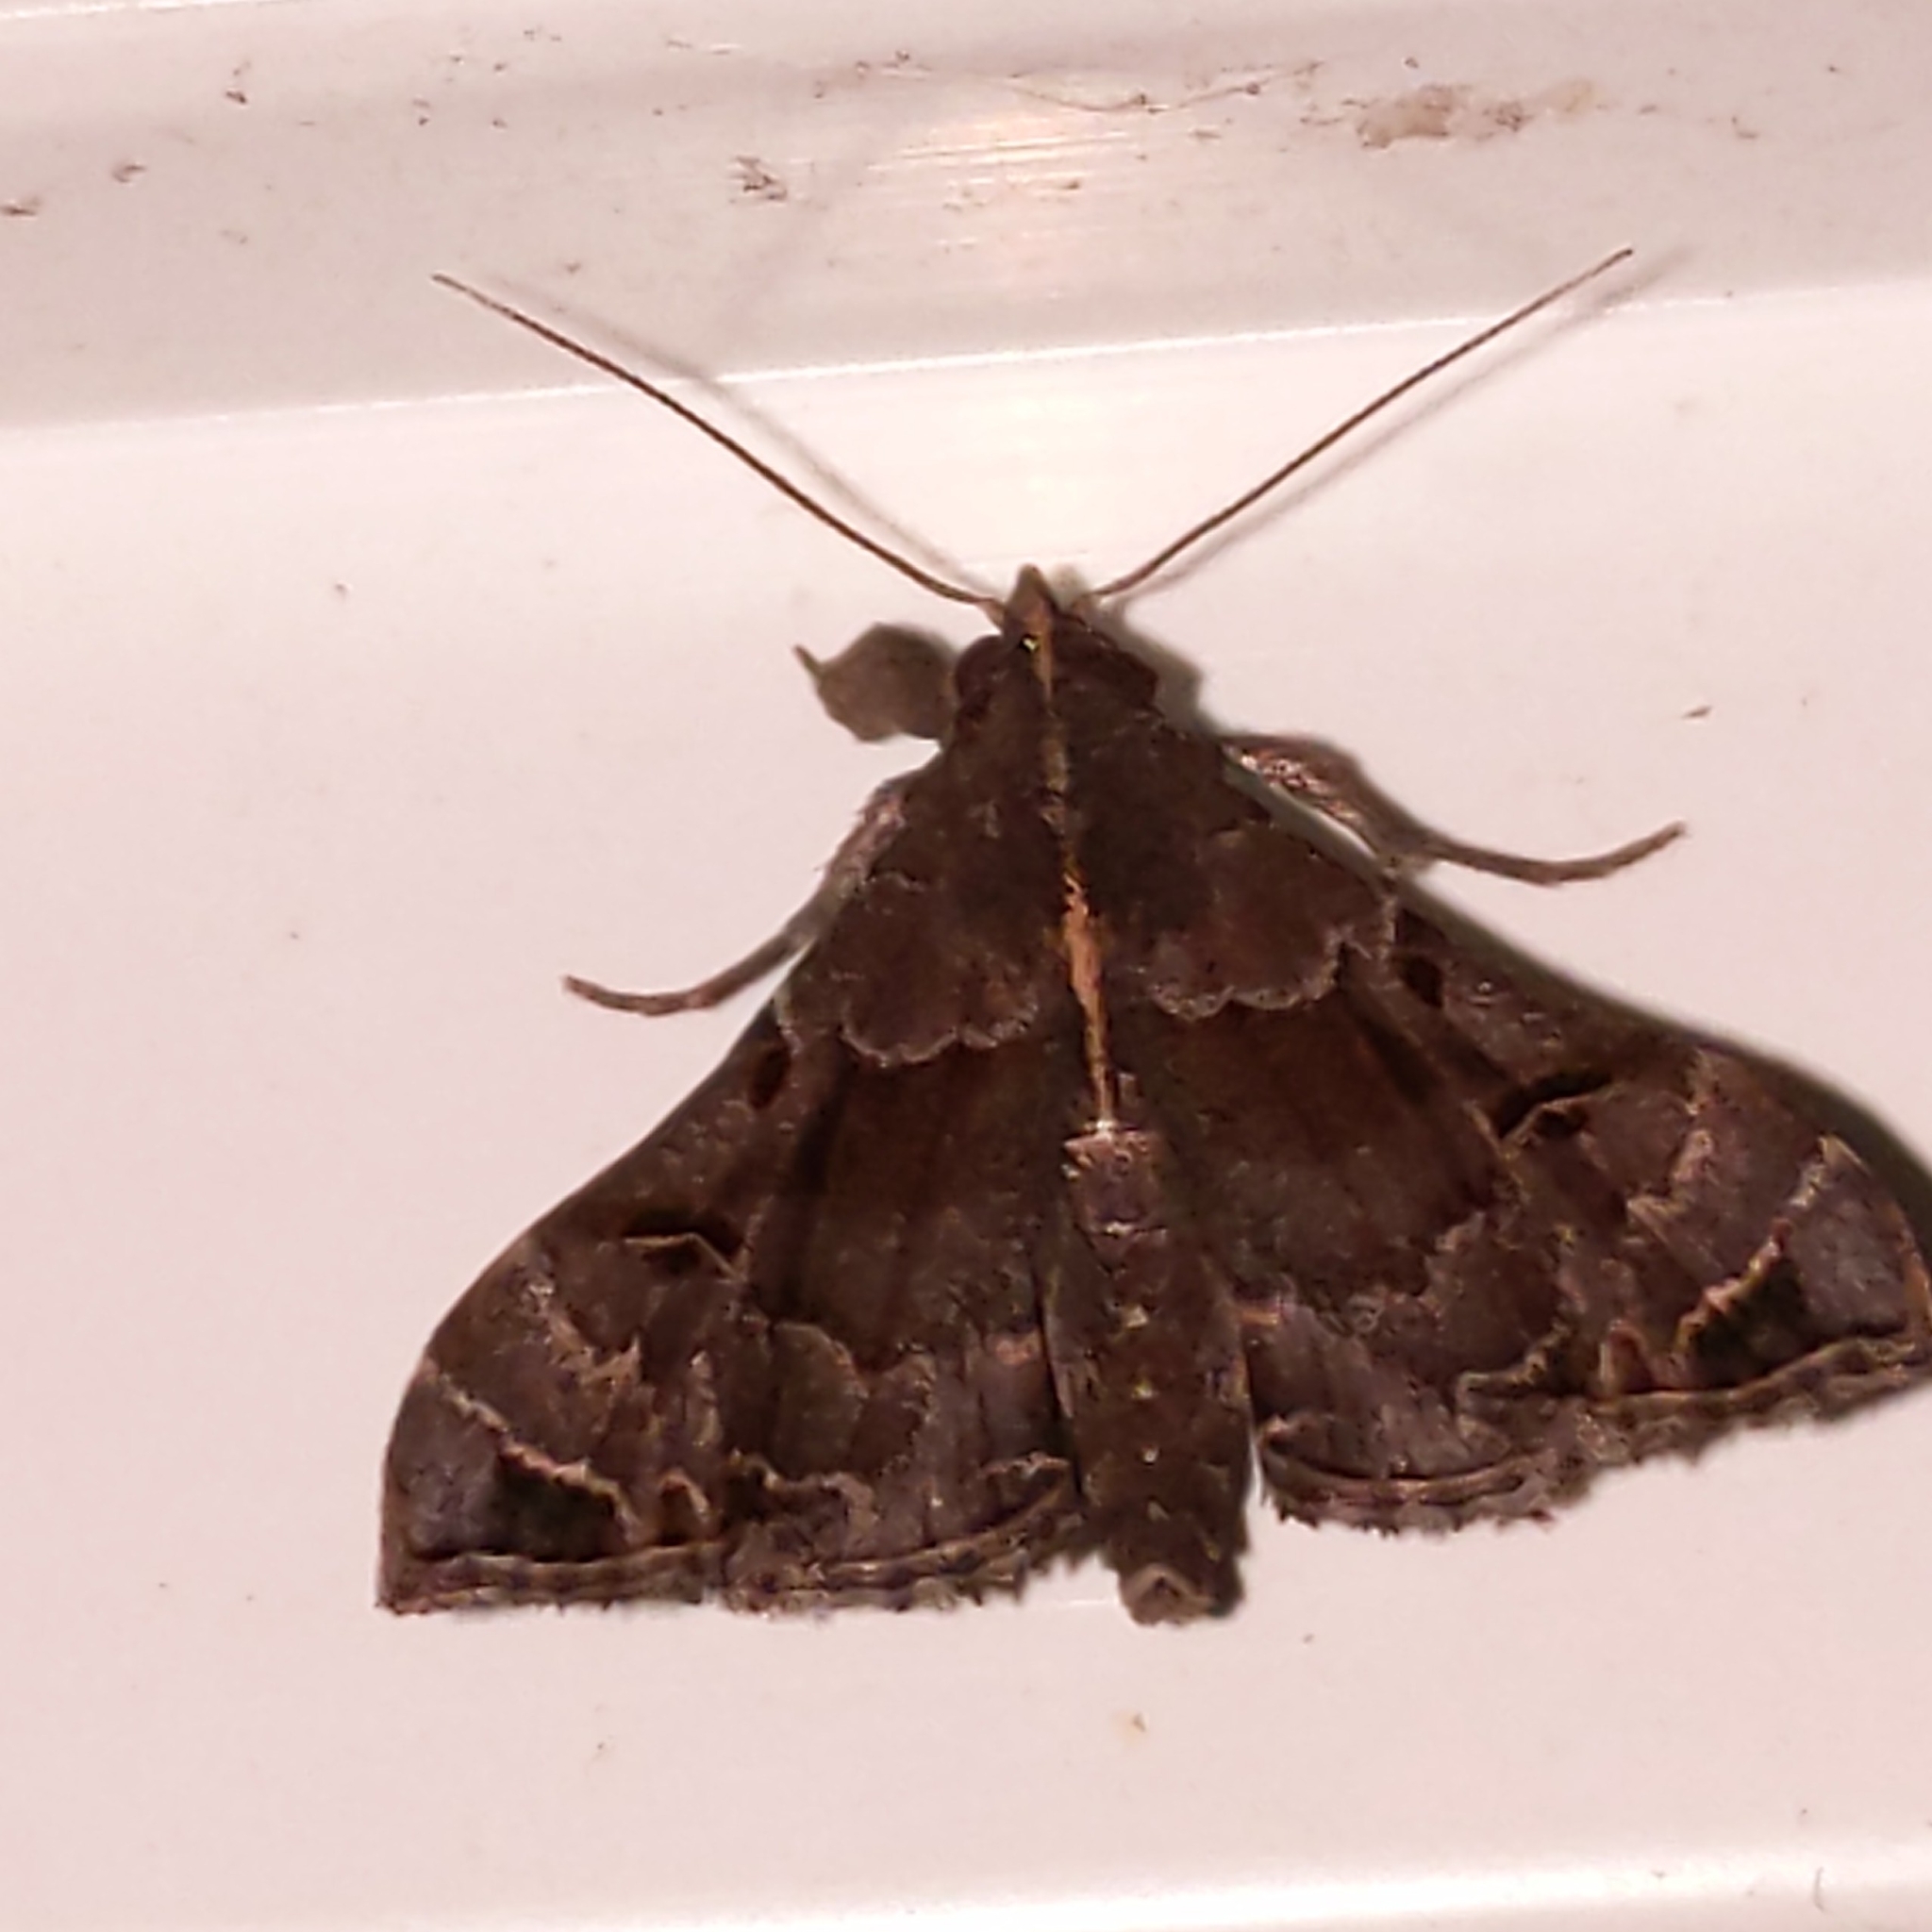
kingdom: Animalia
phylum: Arthropoda
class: Insecta
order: Lepidoptera
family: Erebidae
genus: Palthis
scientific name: Palthis asopialis
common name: Faint-spotted palthis moth
